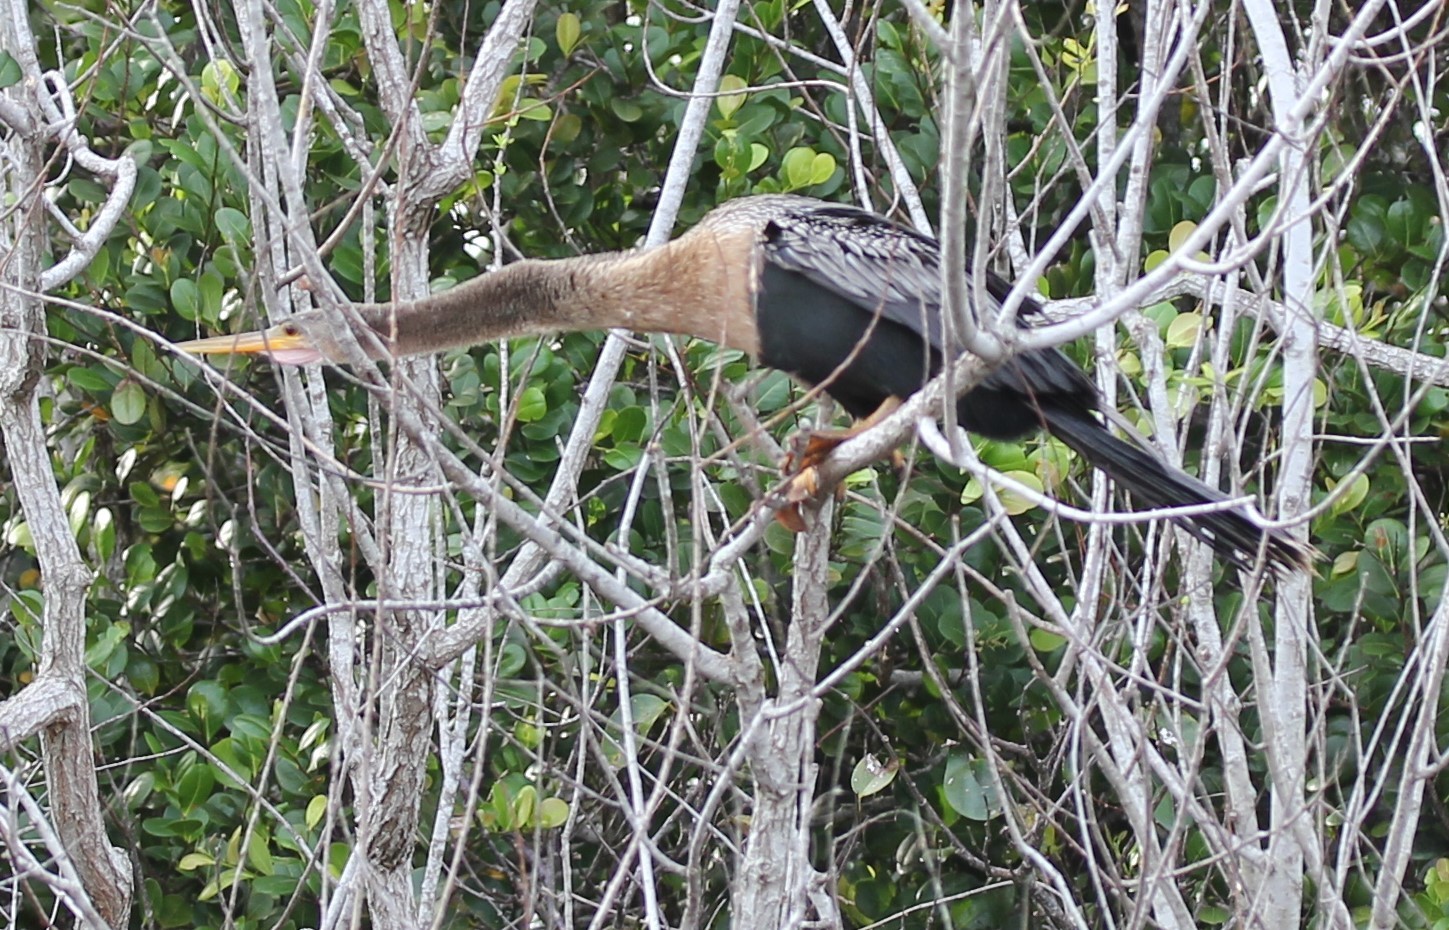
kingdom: Animalia
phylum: Chordata
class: Aves
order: Suliformes
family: Anhingidae
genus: Anhinga
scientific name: Anhinga anhinga
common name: Anhinga
